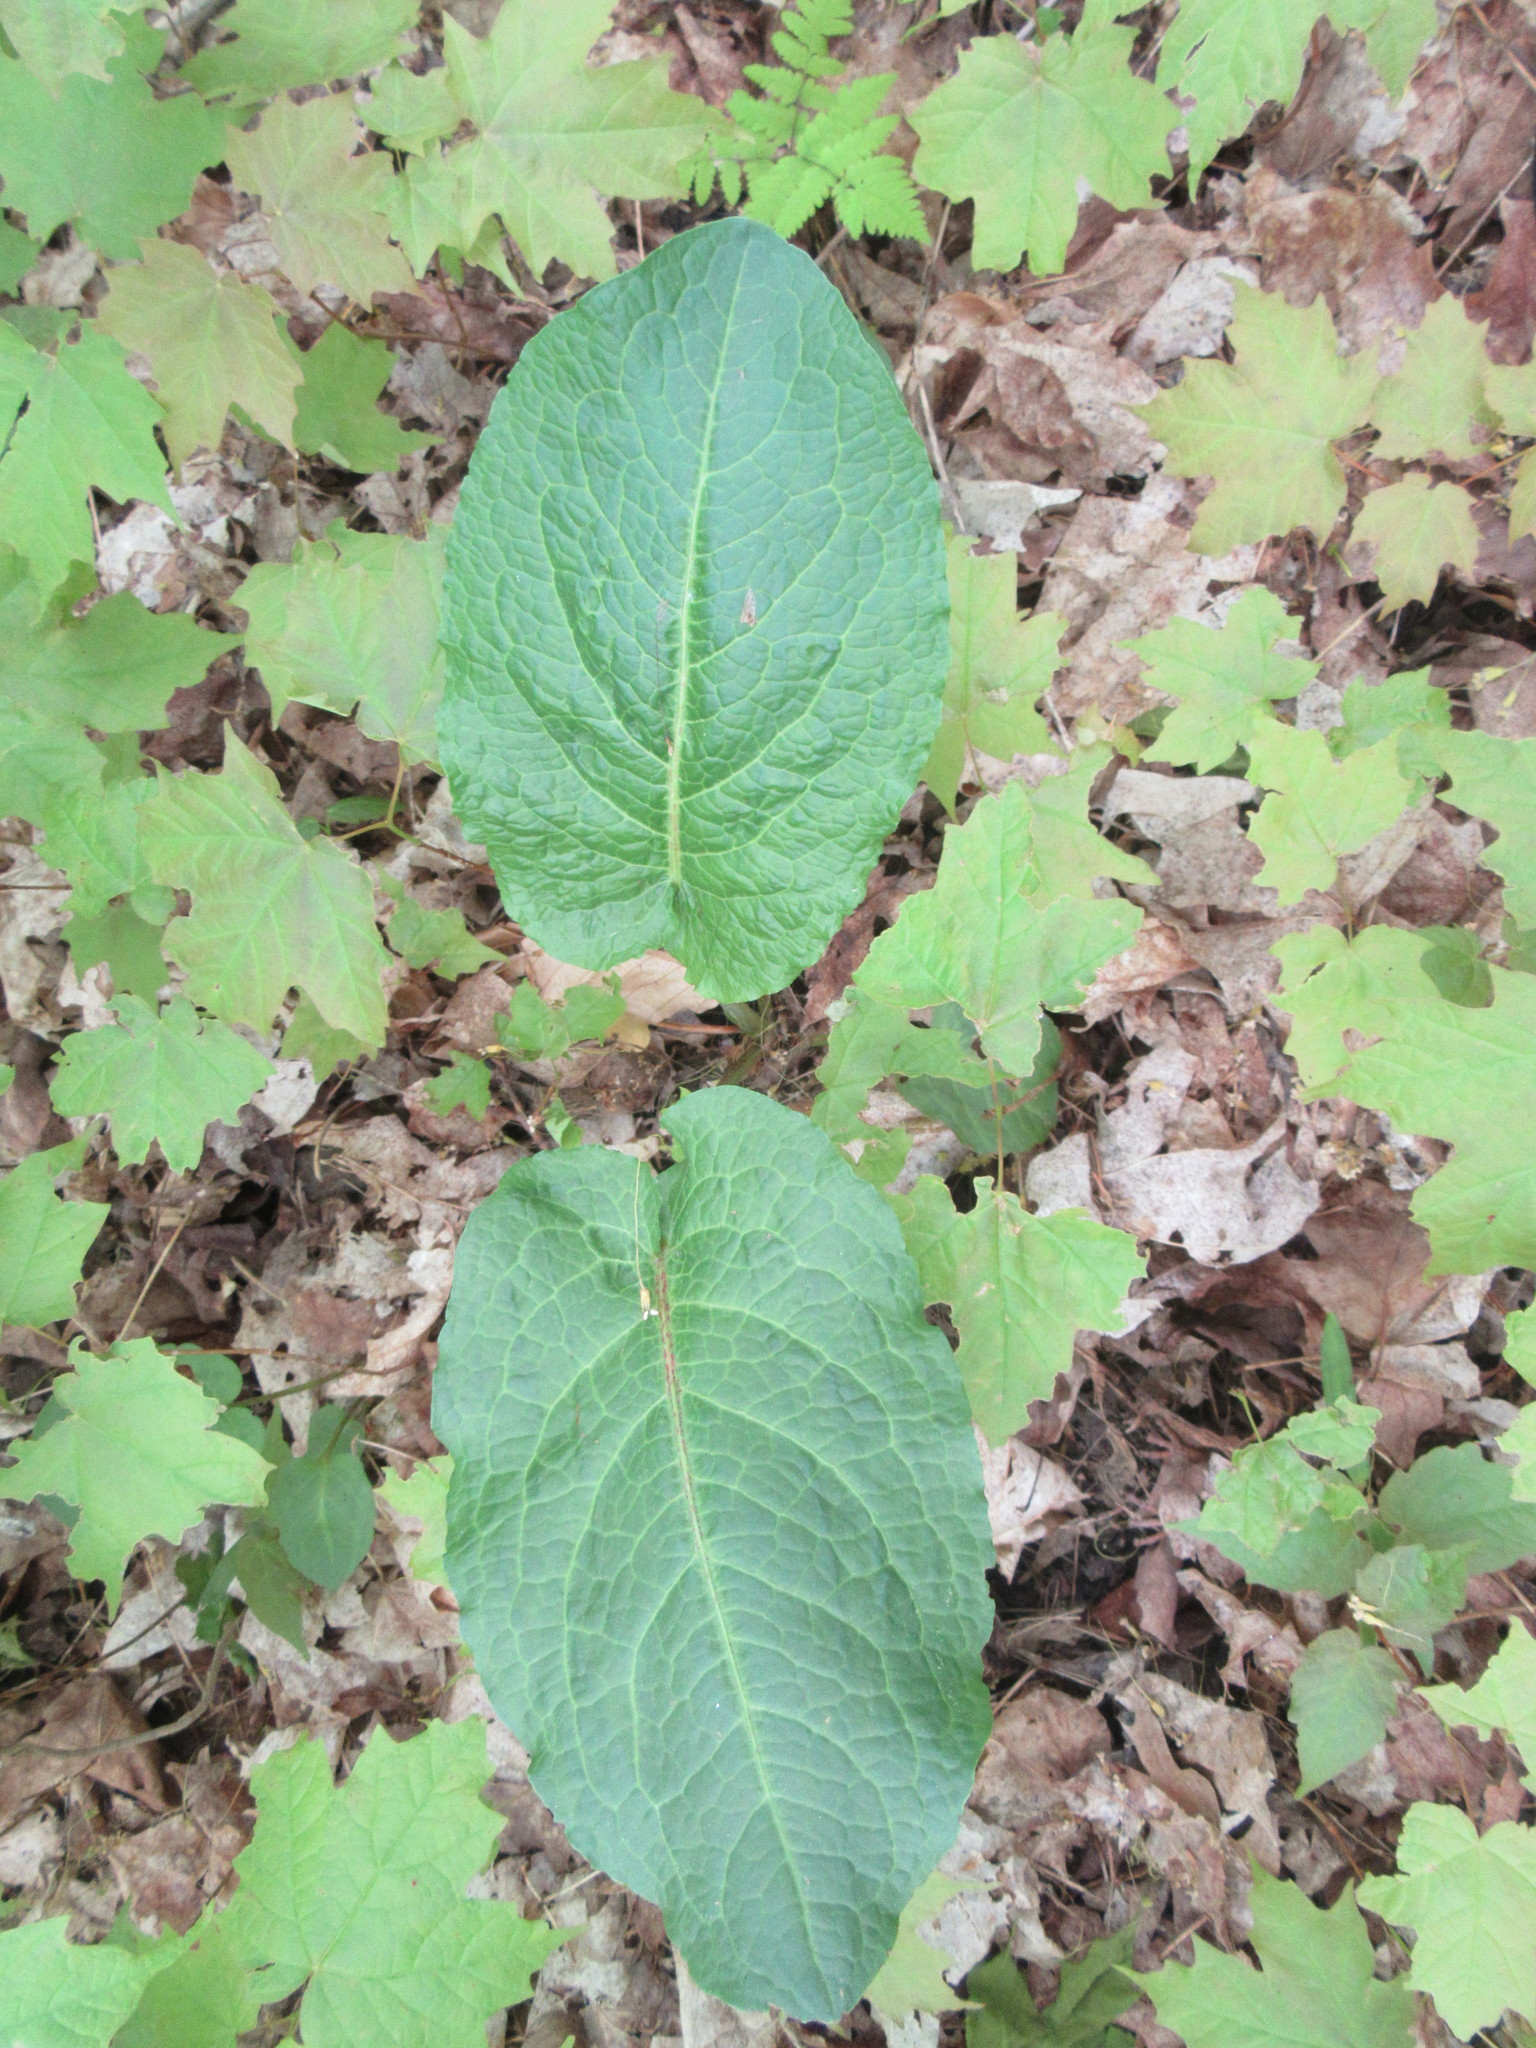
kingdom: Plantae
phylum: Tracheophyta
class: Magnoliopsida
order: Caryophyllales
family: Polygonaceae
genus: Rumex
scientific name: Rumex obtusifolius
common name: Bitter dock
